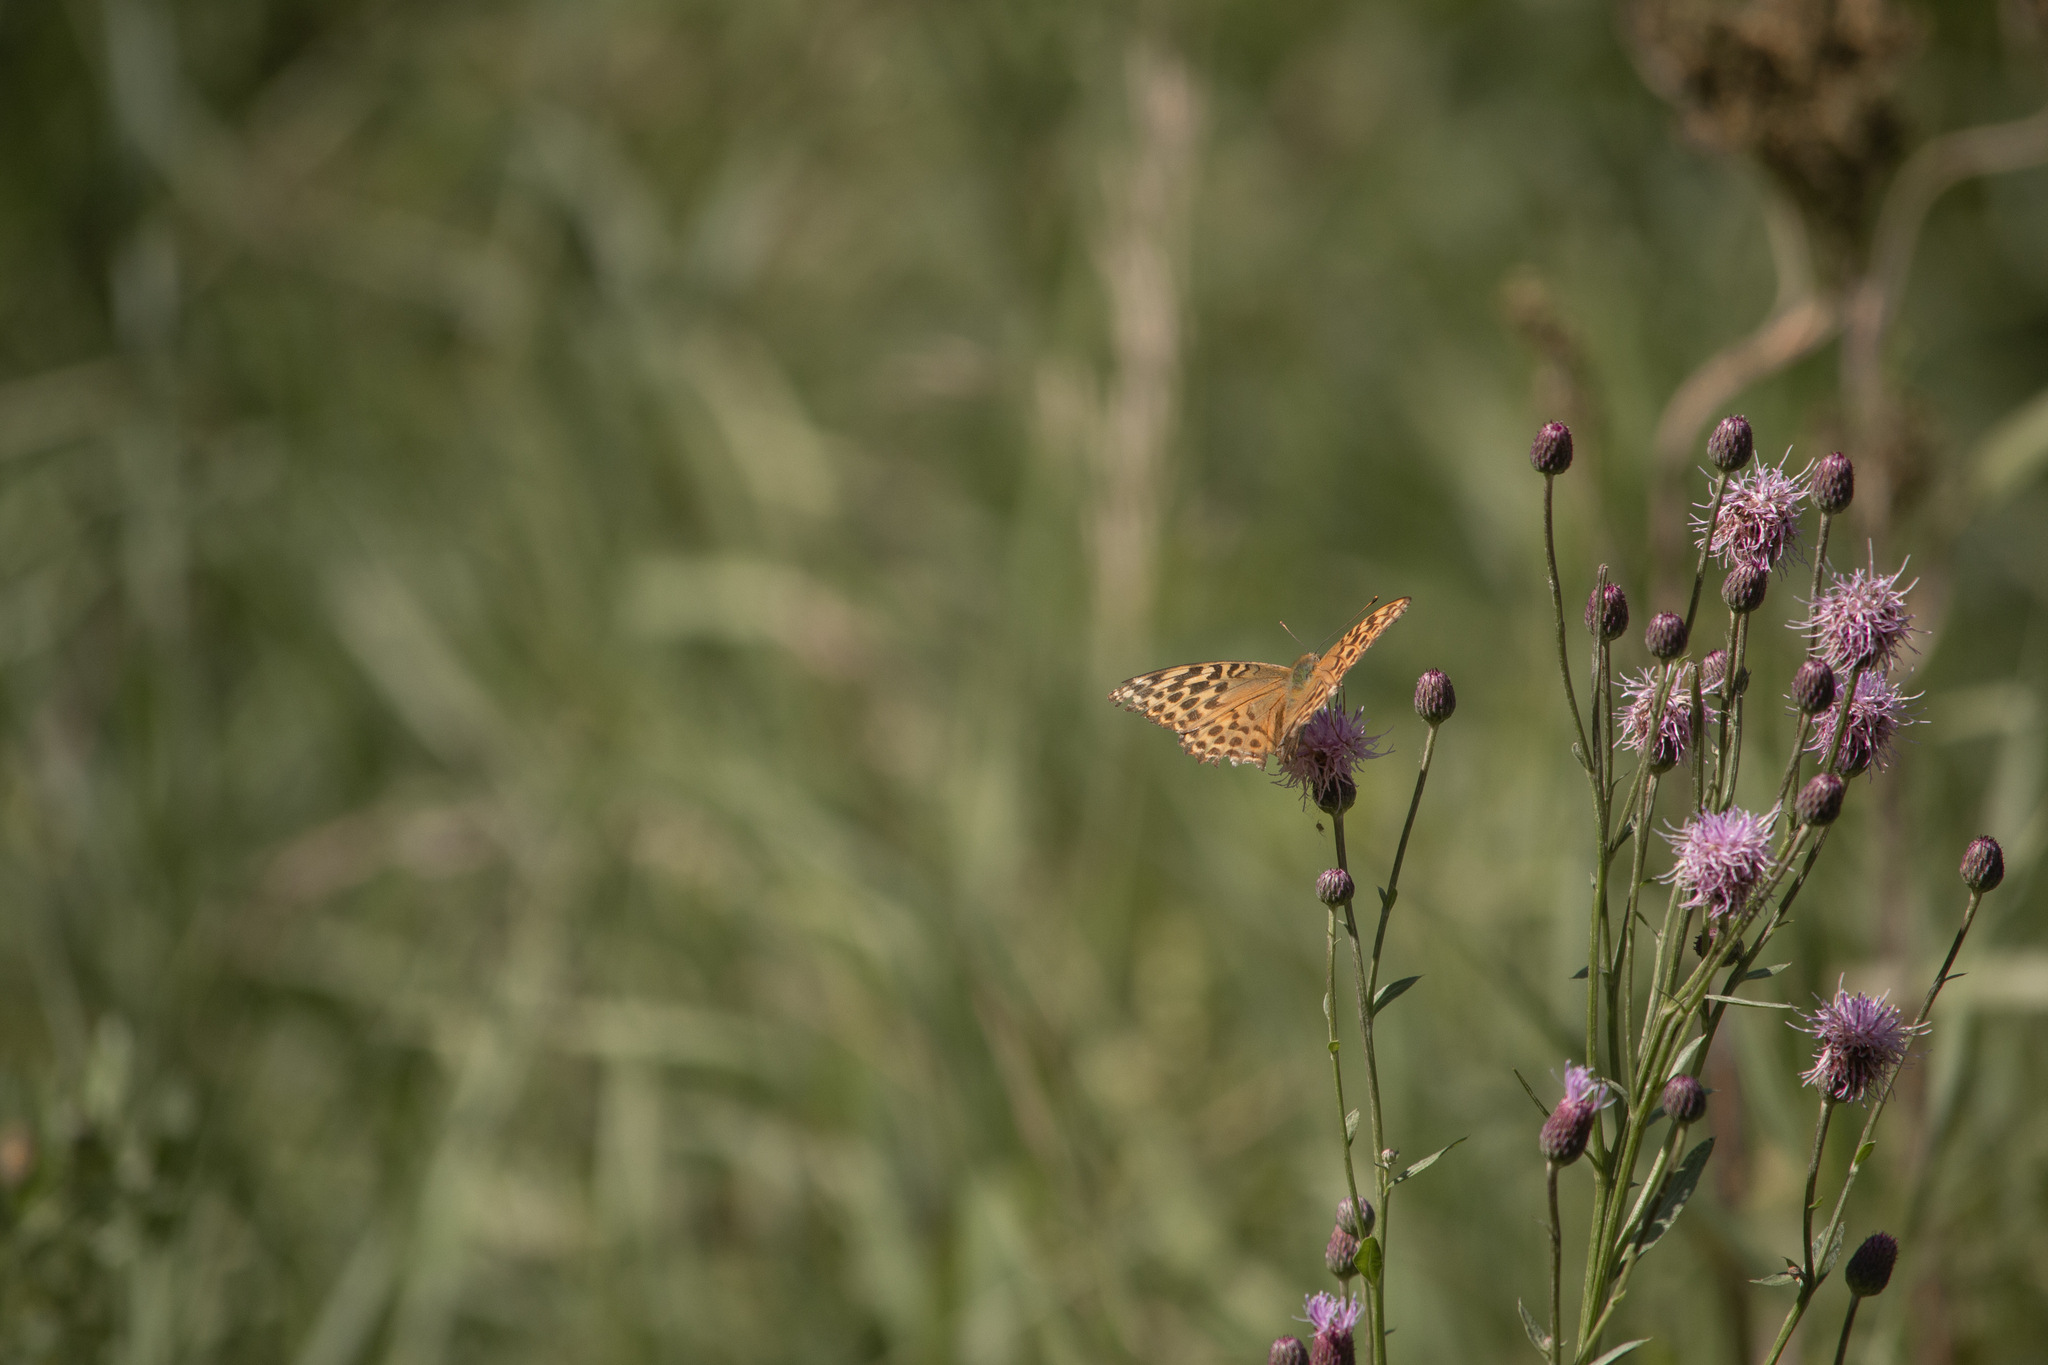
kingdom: Animalia
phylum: Arthropoda
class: Insecta
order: Lepidoptera
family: Nymphalidae
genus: Argynnis
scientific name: Argynnis paphia
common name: Silver-washed fritillary
